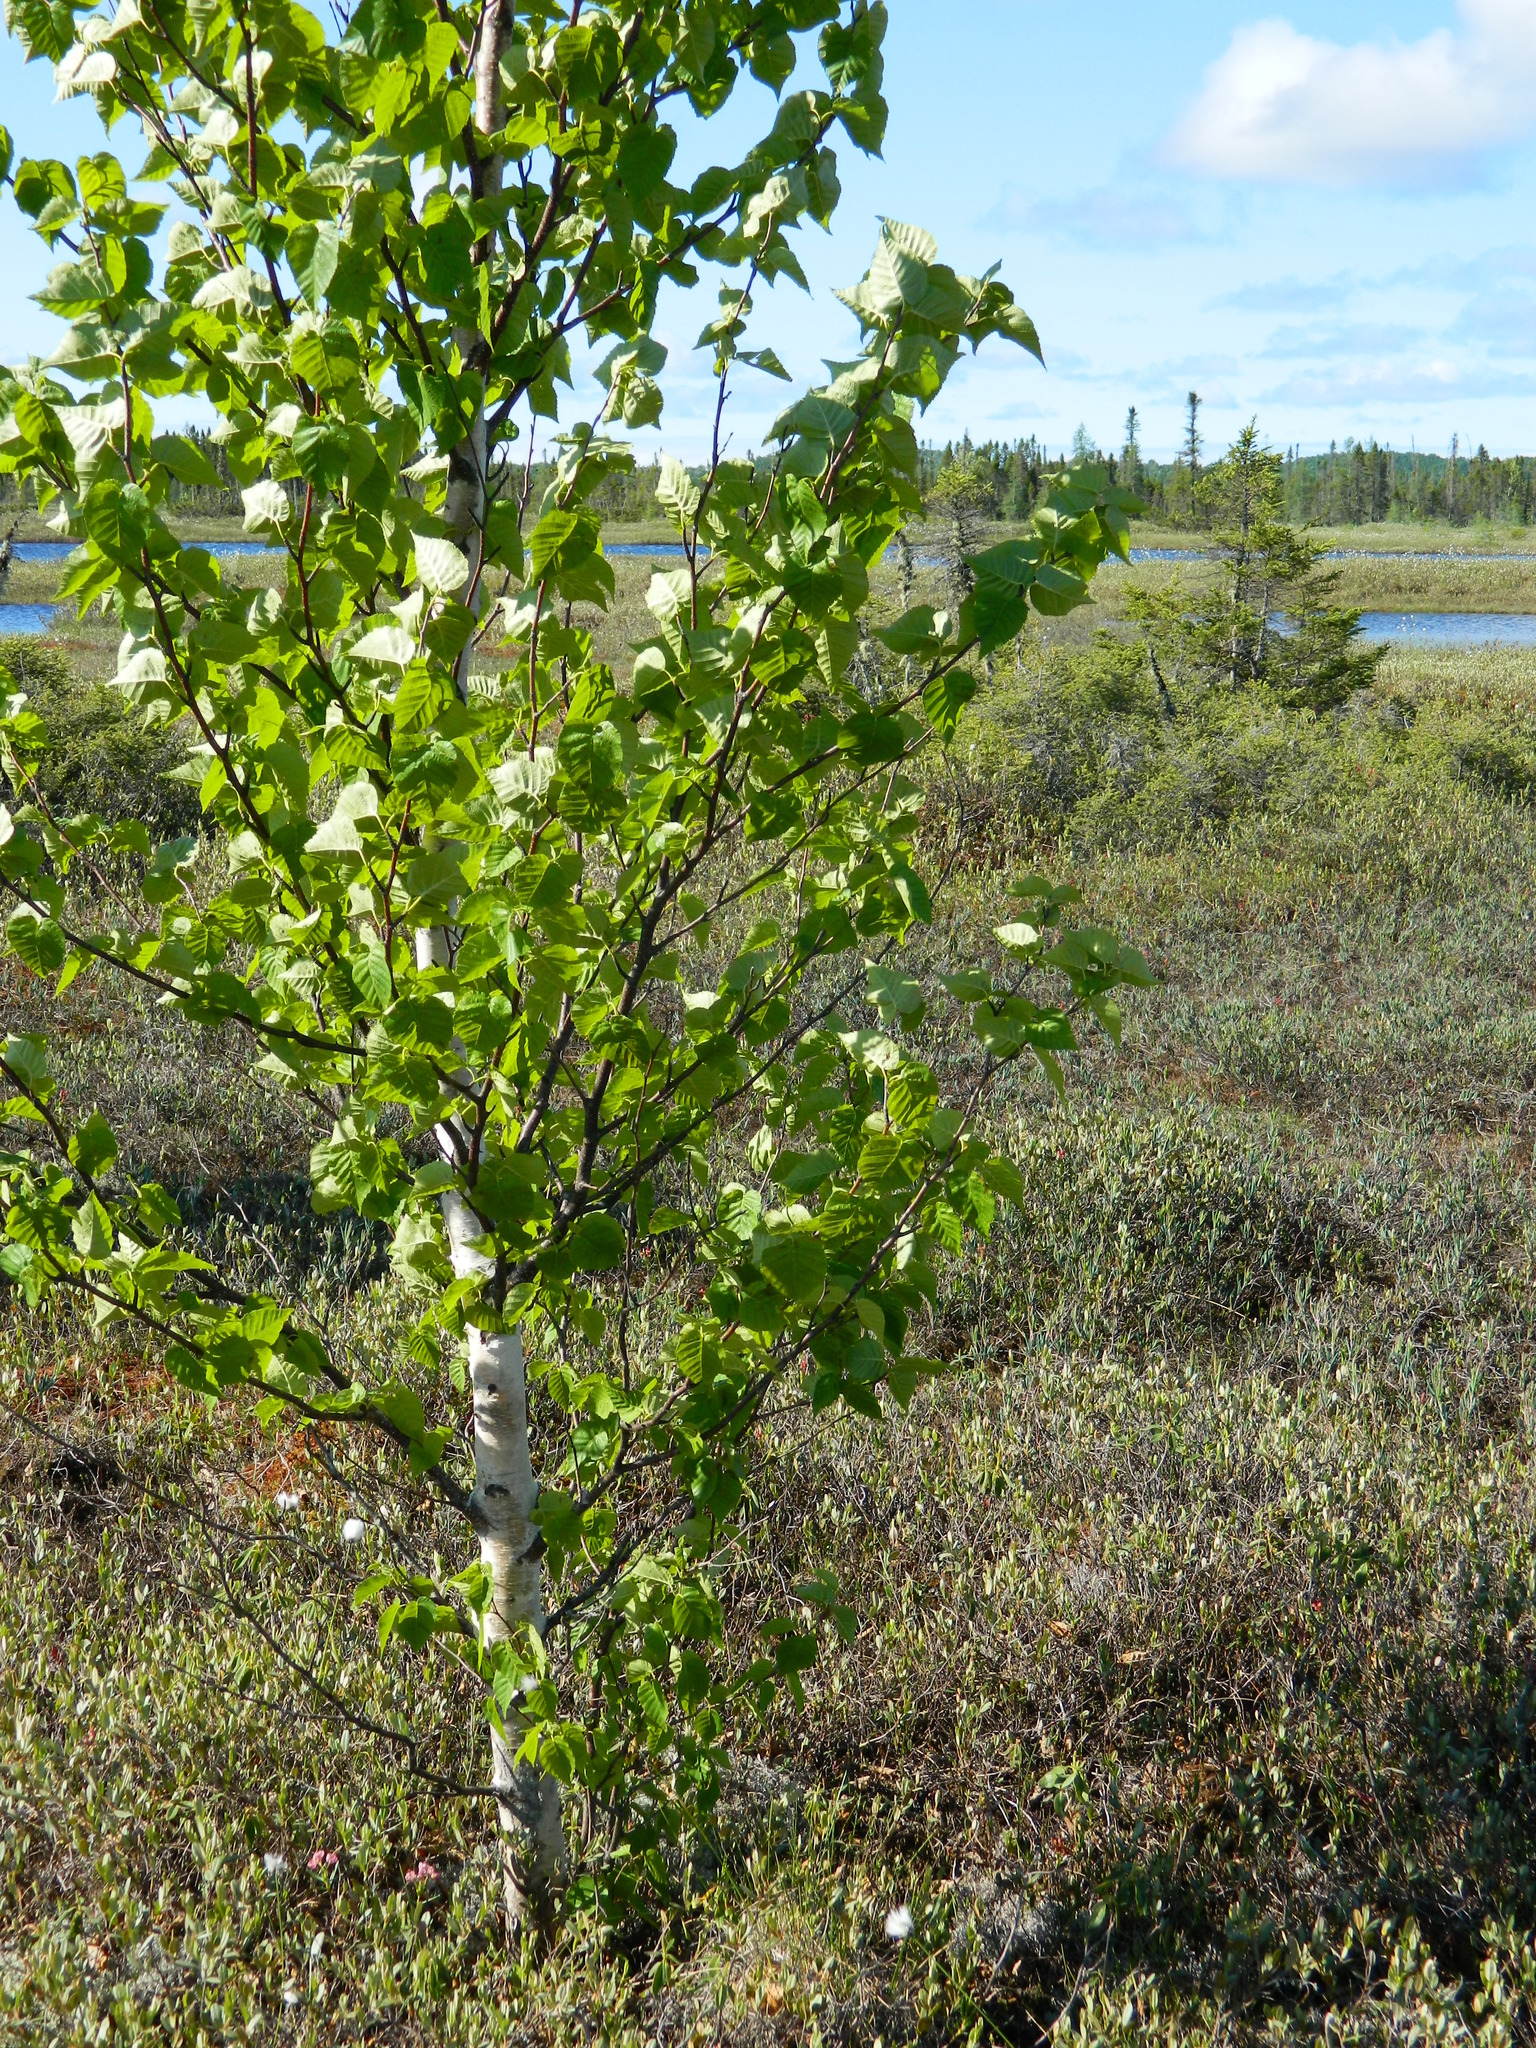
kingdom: Plantae
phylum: Tracheophyta
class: Magnoliopsida
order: Fagales
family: Betulaceae
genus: Betula
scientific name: Betula papyrifera
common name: Paper birch
